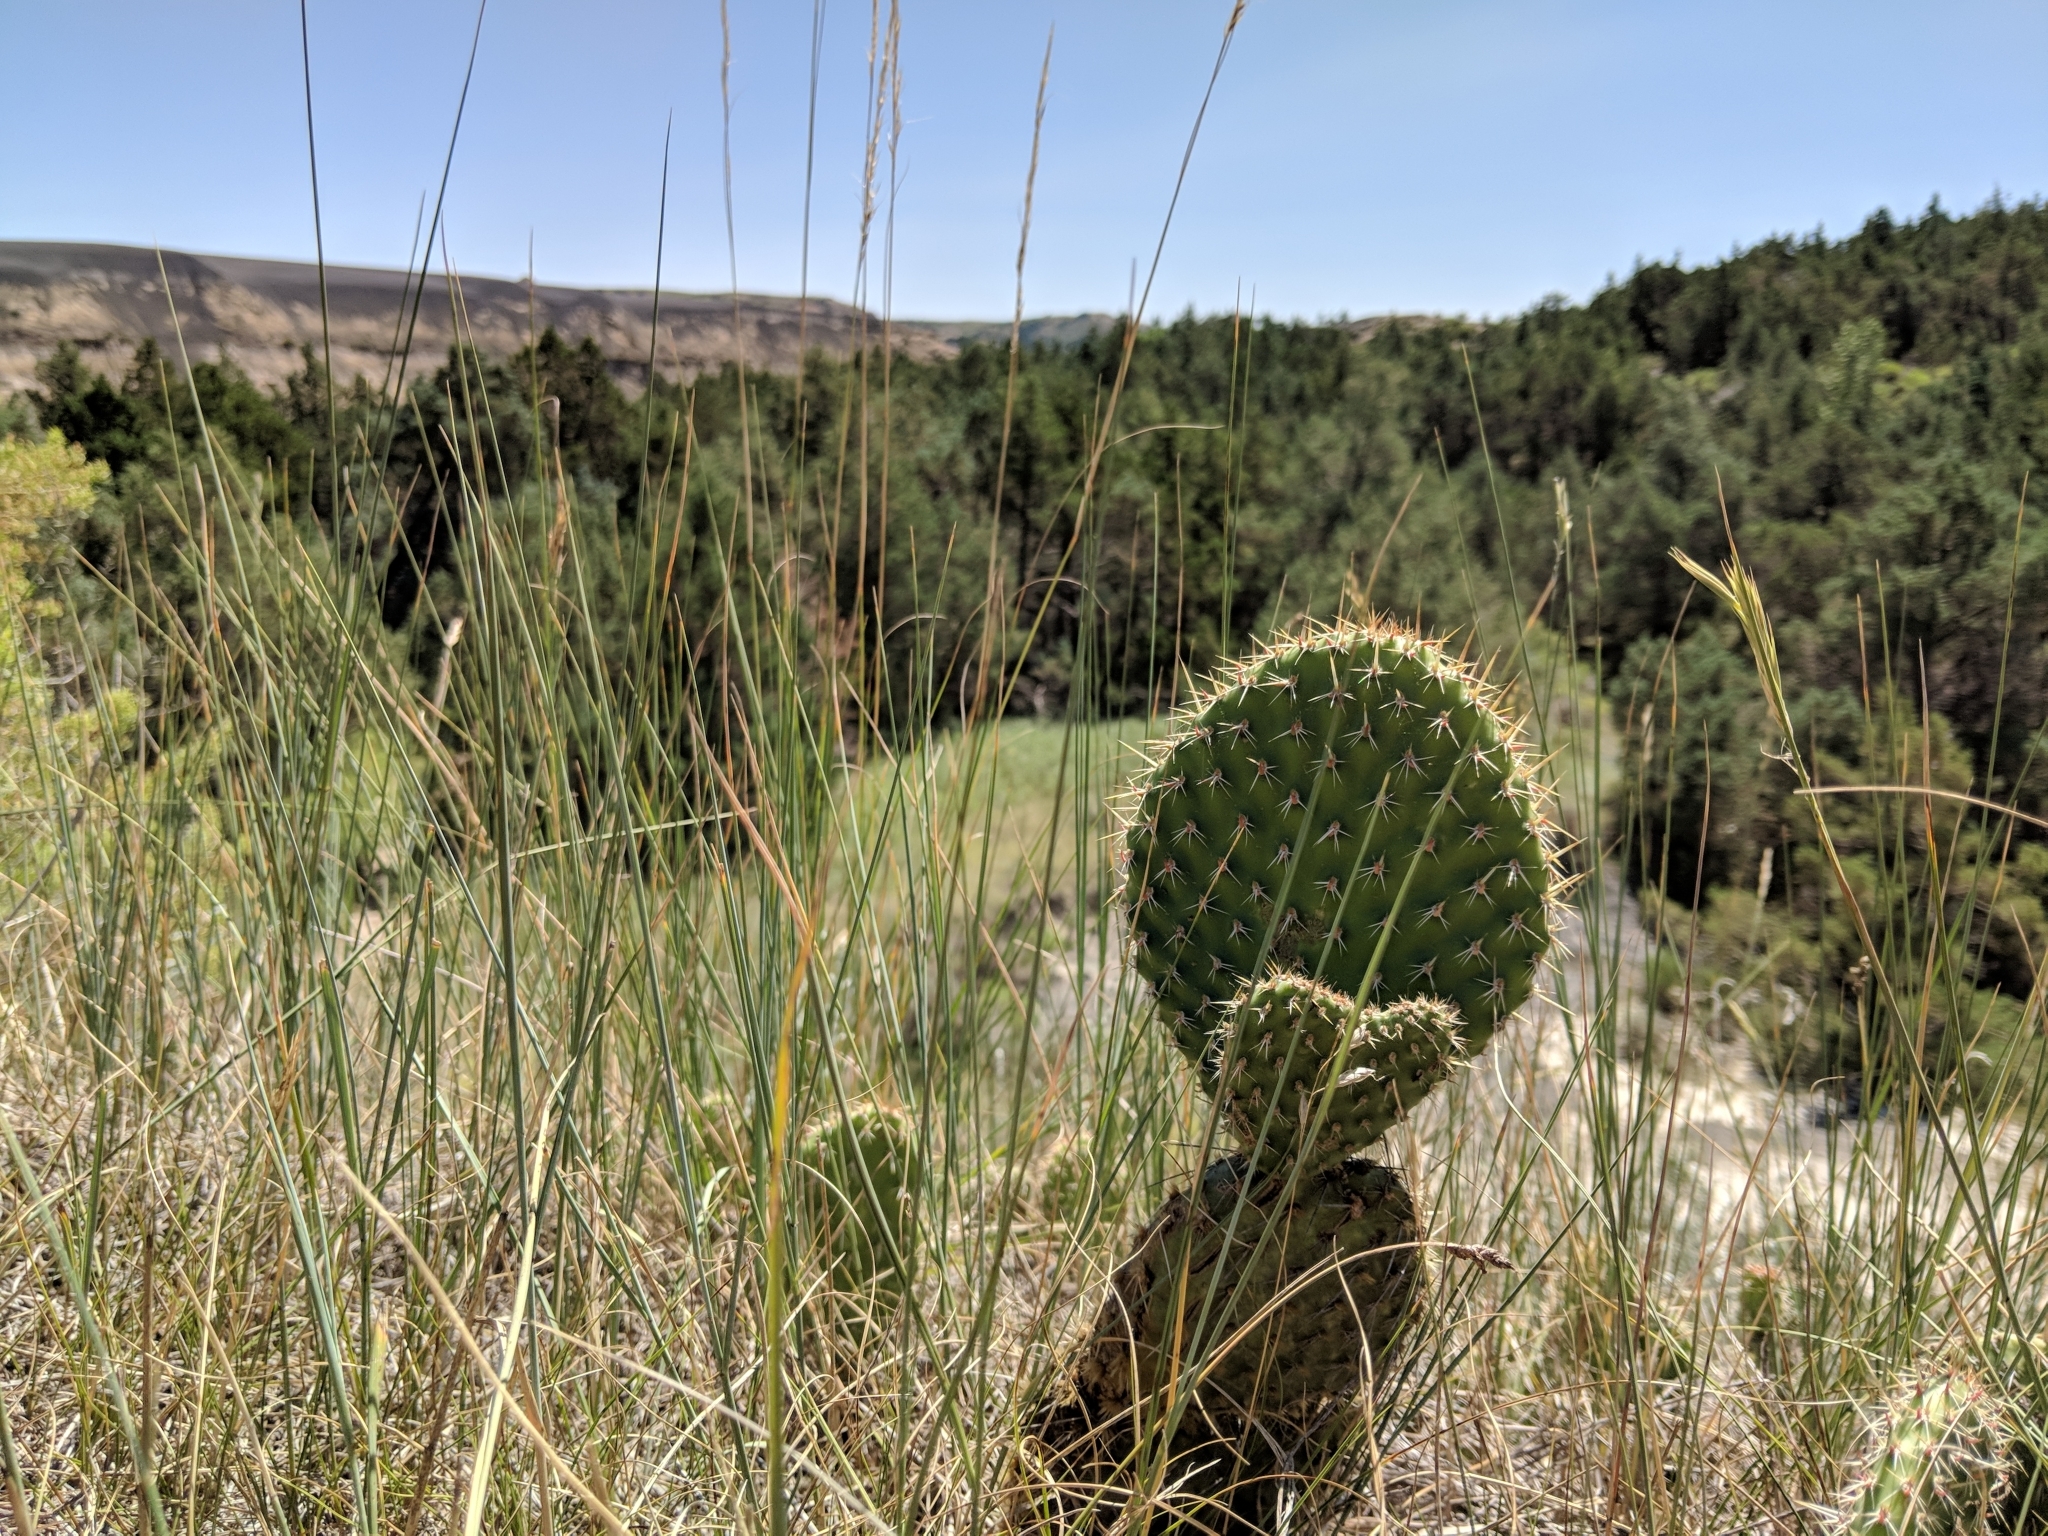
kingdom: Plantae
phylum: Tracheophyta
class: Magnoliopsida
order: Caryophyllales
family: Cactaceae
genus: Opuntia
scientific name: Opuntia polyacantha
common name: Plains prickly-pear
